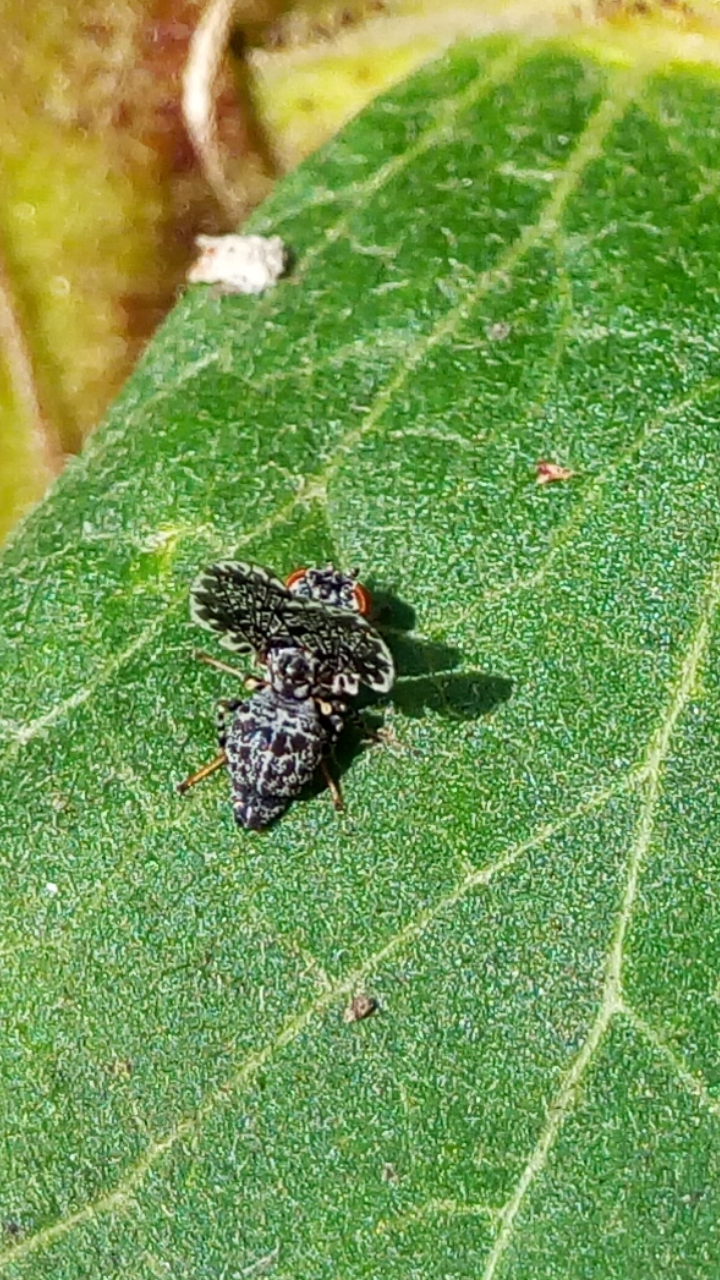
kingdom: Animalia
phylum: Arthropoda
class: Insecta
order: Diptera
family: Ulidiidae
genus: Callopistromyia
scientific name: Callopistromyia annulipes
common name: Peacock fly
